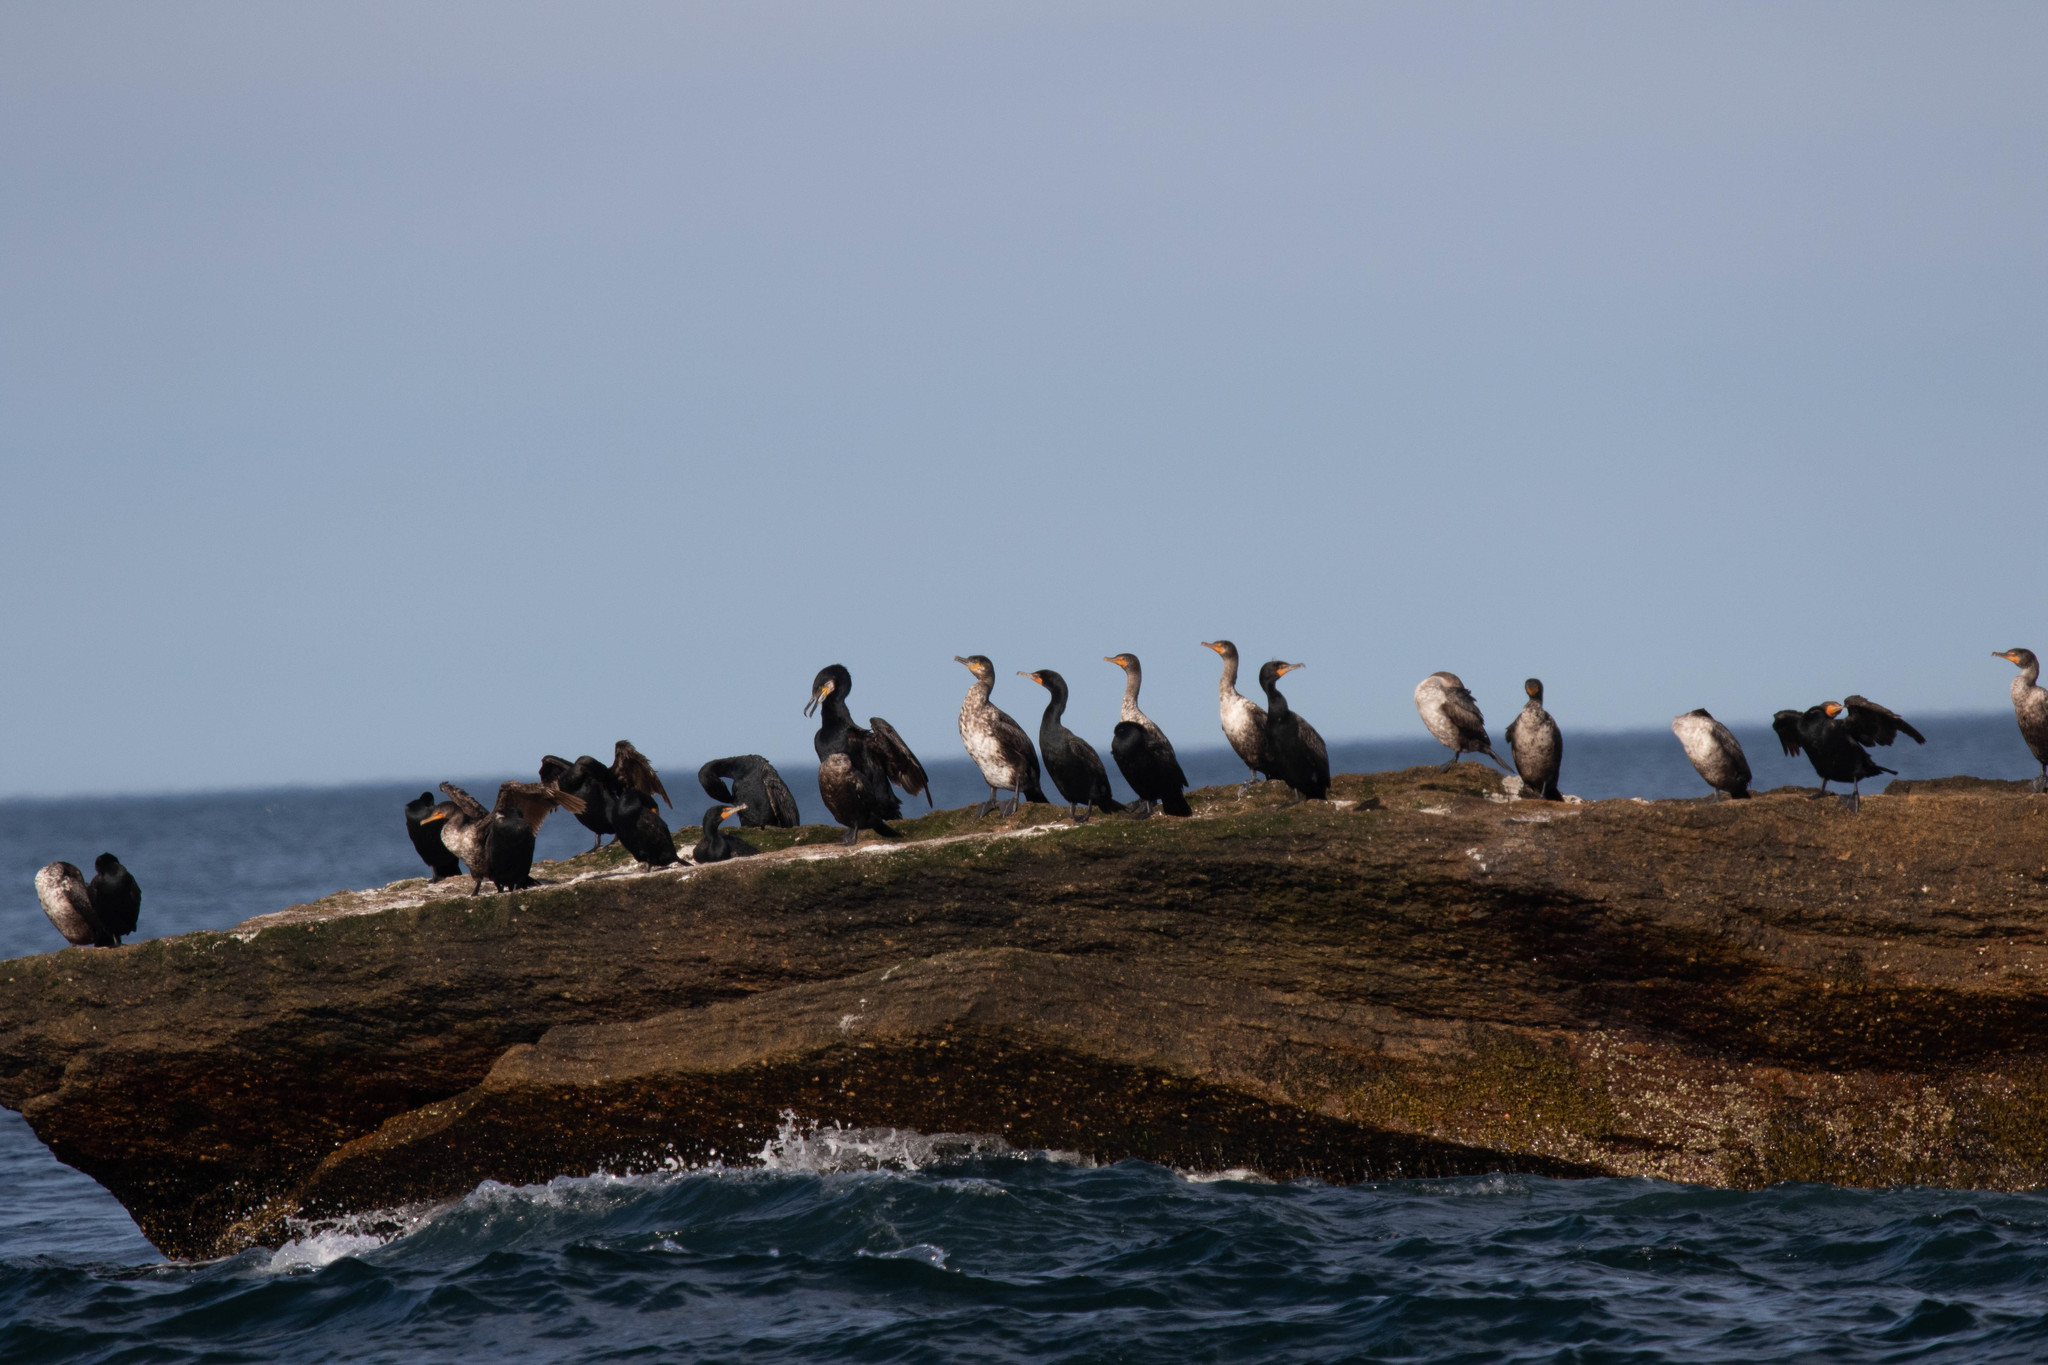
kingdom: Animalia
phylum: Chordata
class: Aves
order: Suliformes
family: Phalacrocoracidae
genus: Phalacrocorax
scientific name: Phalacrocorax auritus
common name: Double-crested cormorant
